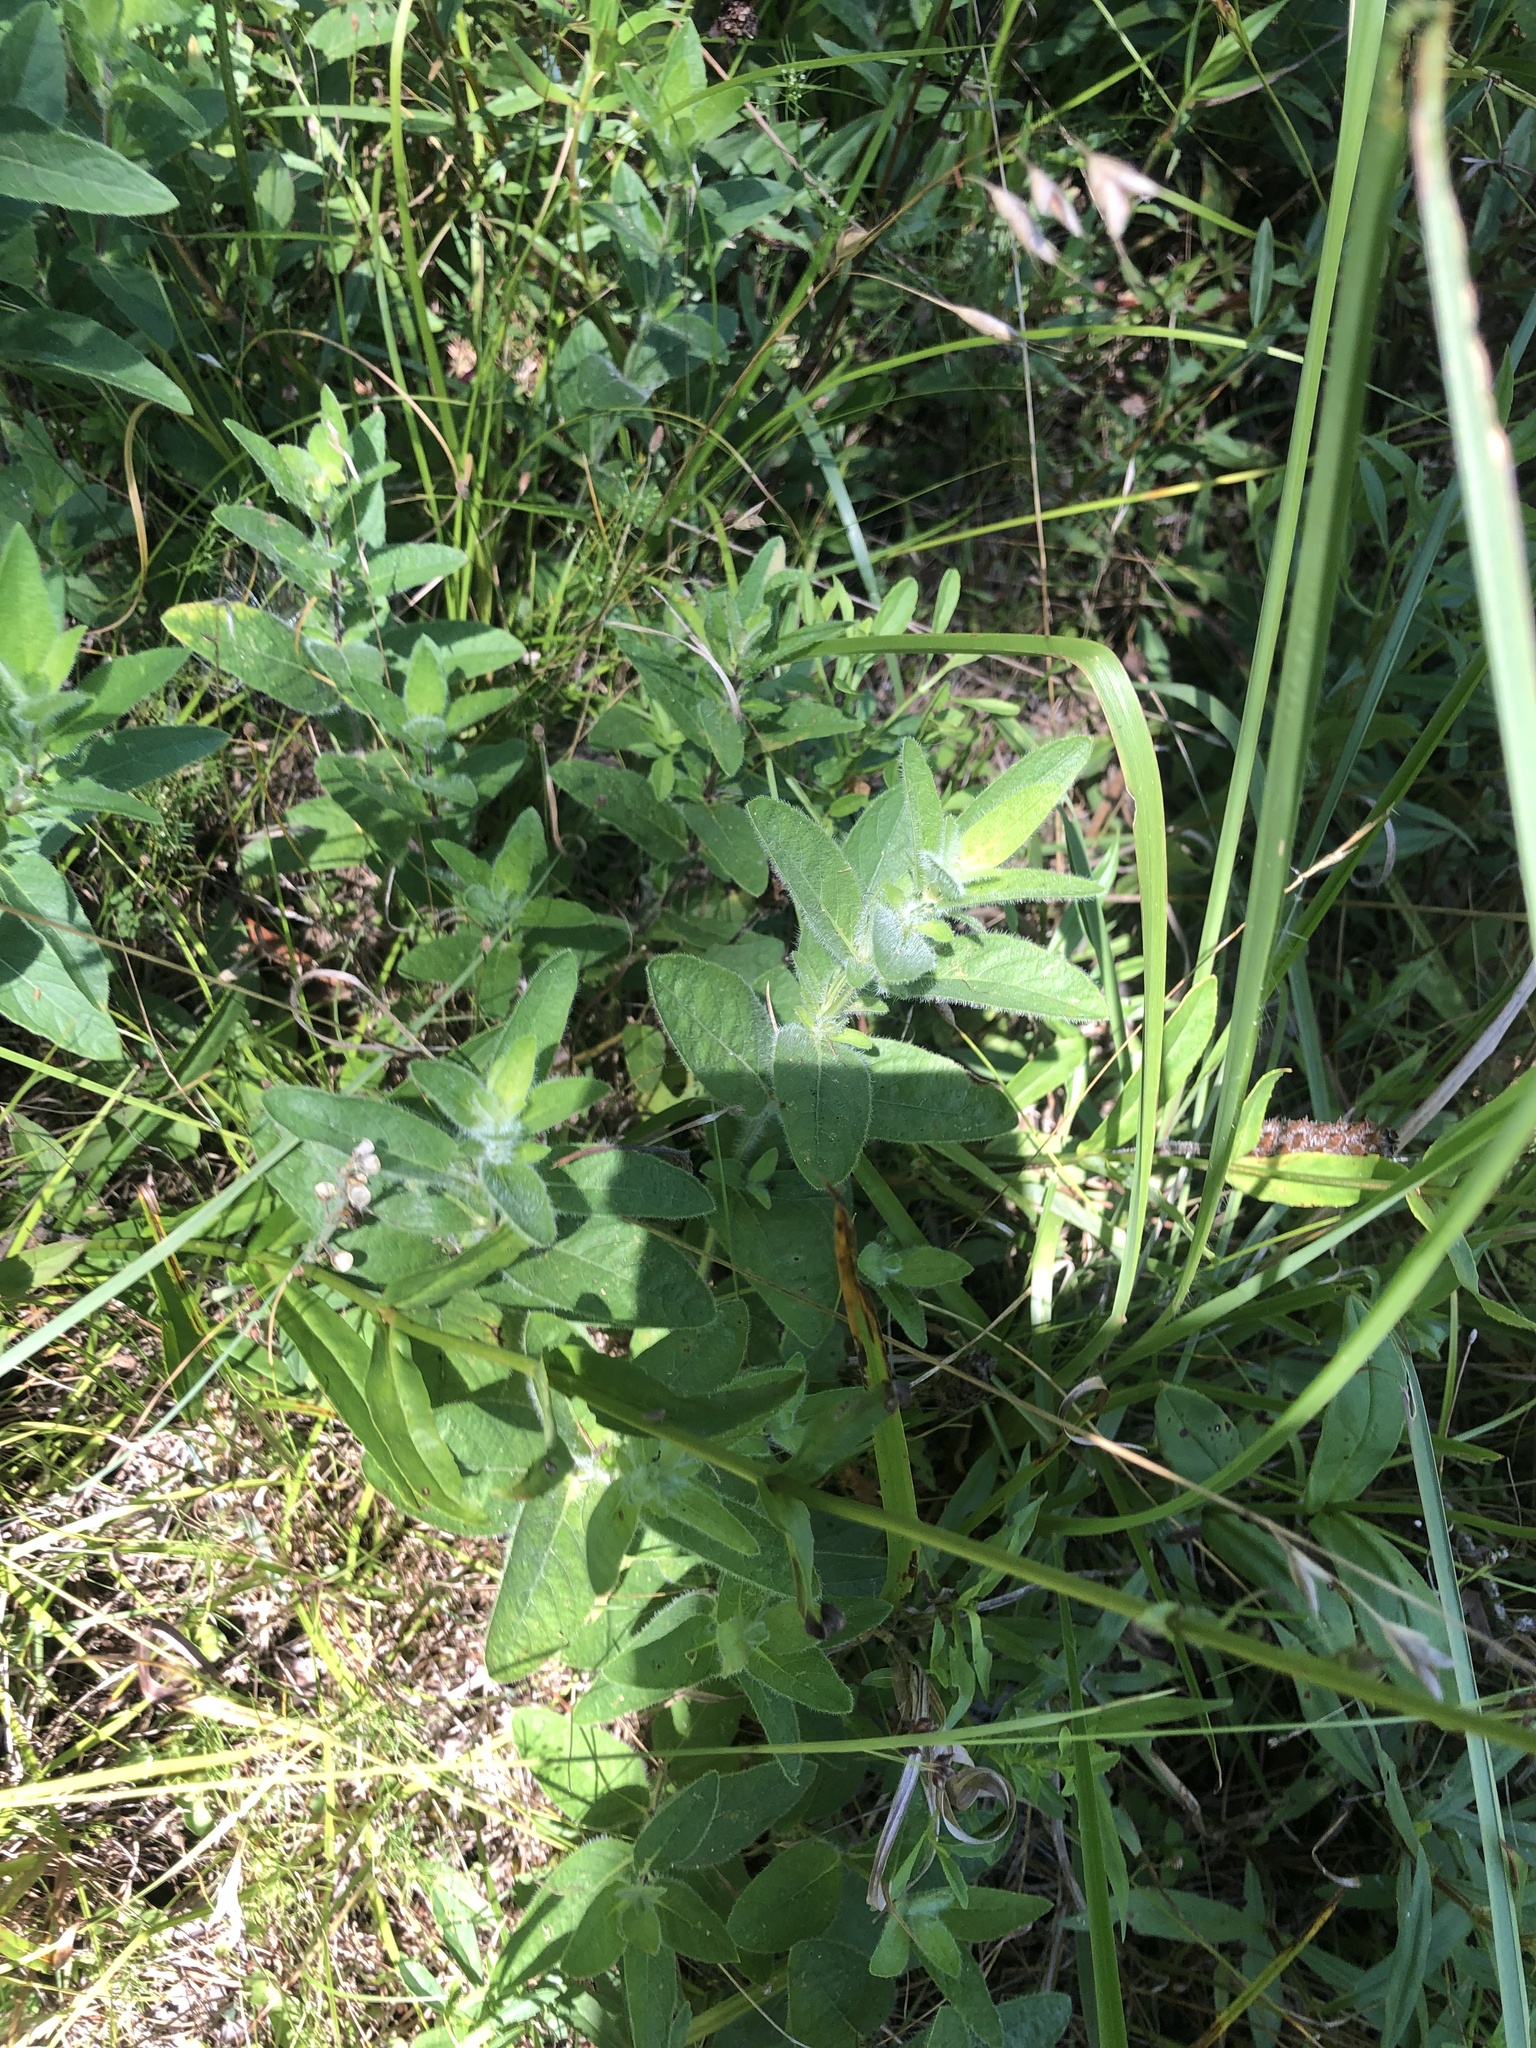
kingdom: Plantae
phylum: Tracheophyta
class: Magnoliopsida
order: Lamiales
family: Acanthaceae
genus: Ruellia
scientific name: Ruellia humilis
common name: Fringe-leaf ruellia
